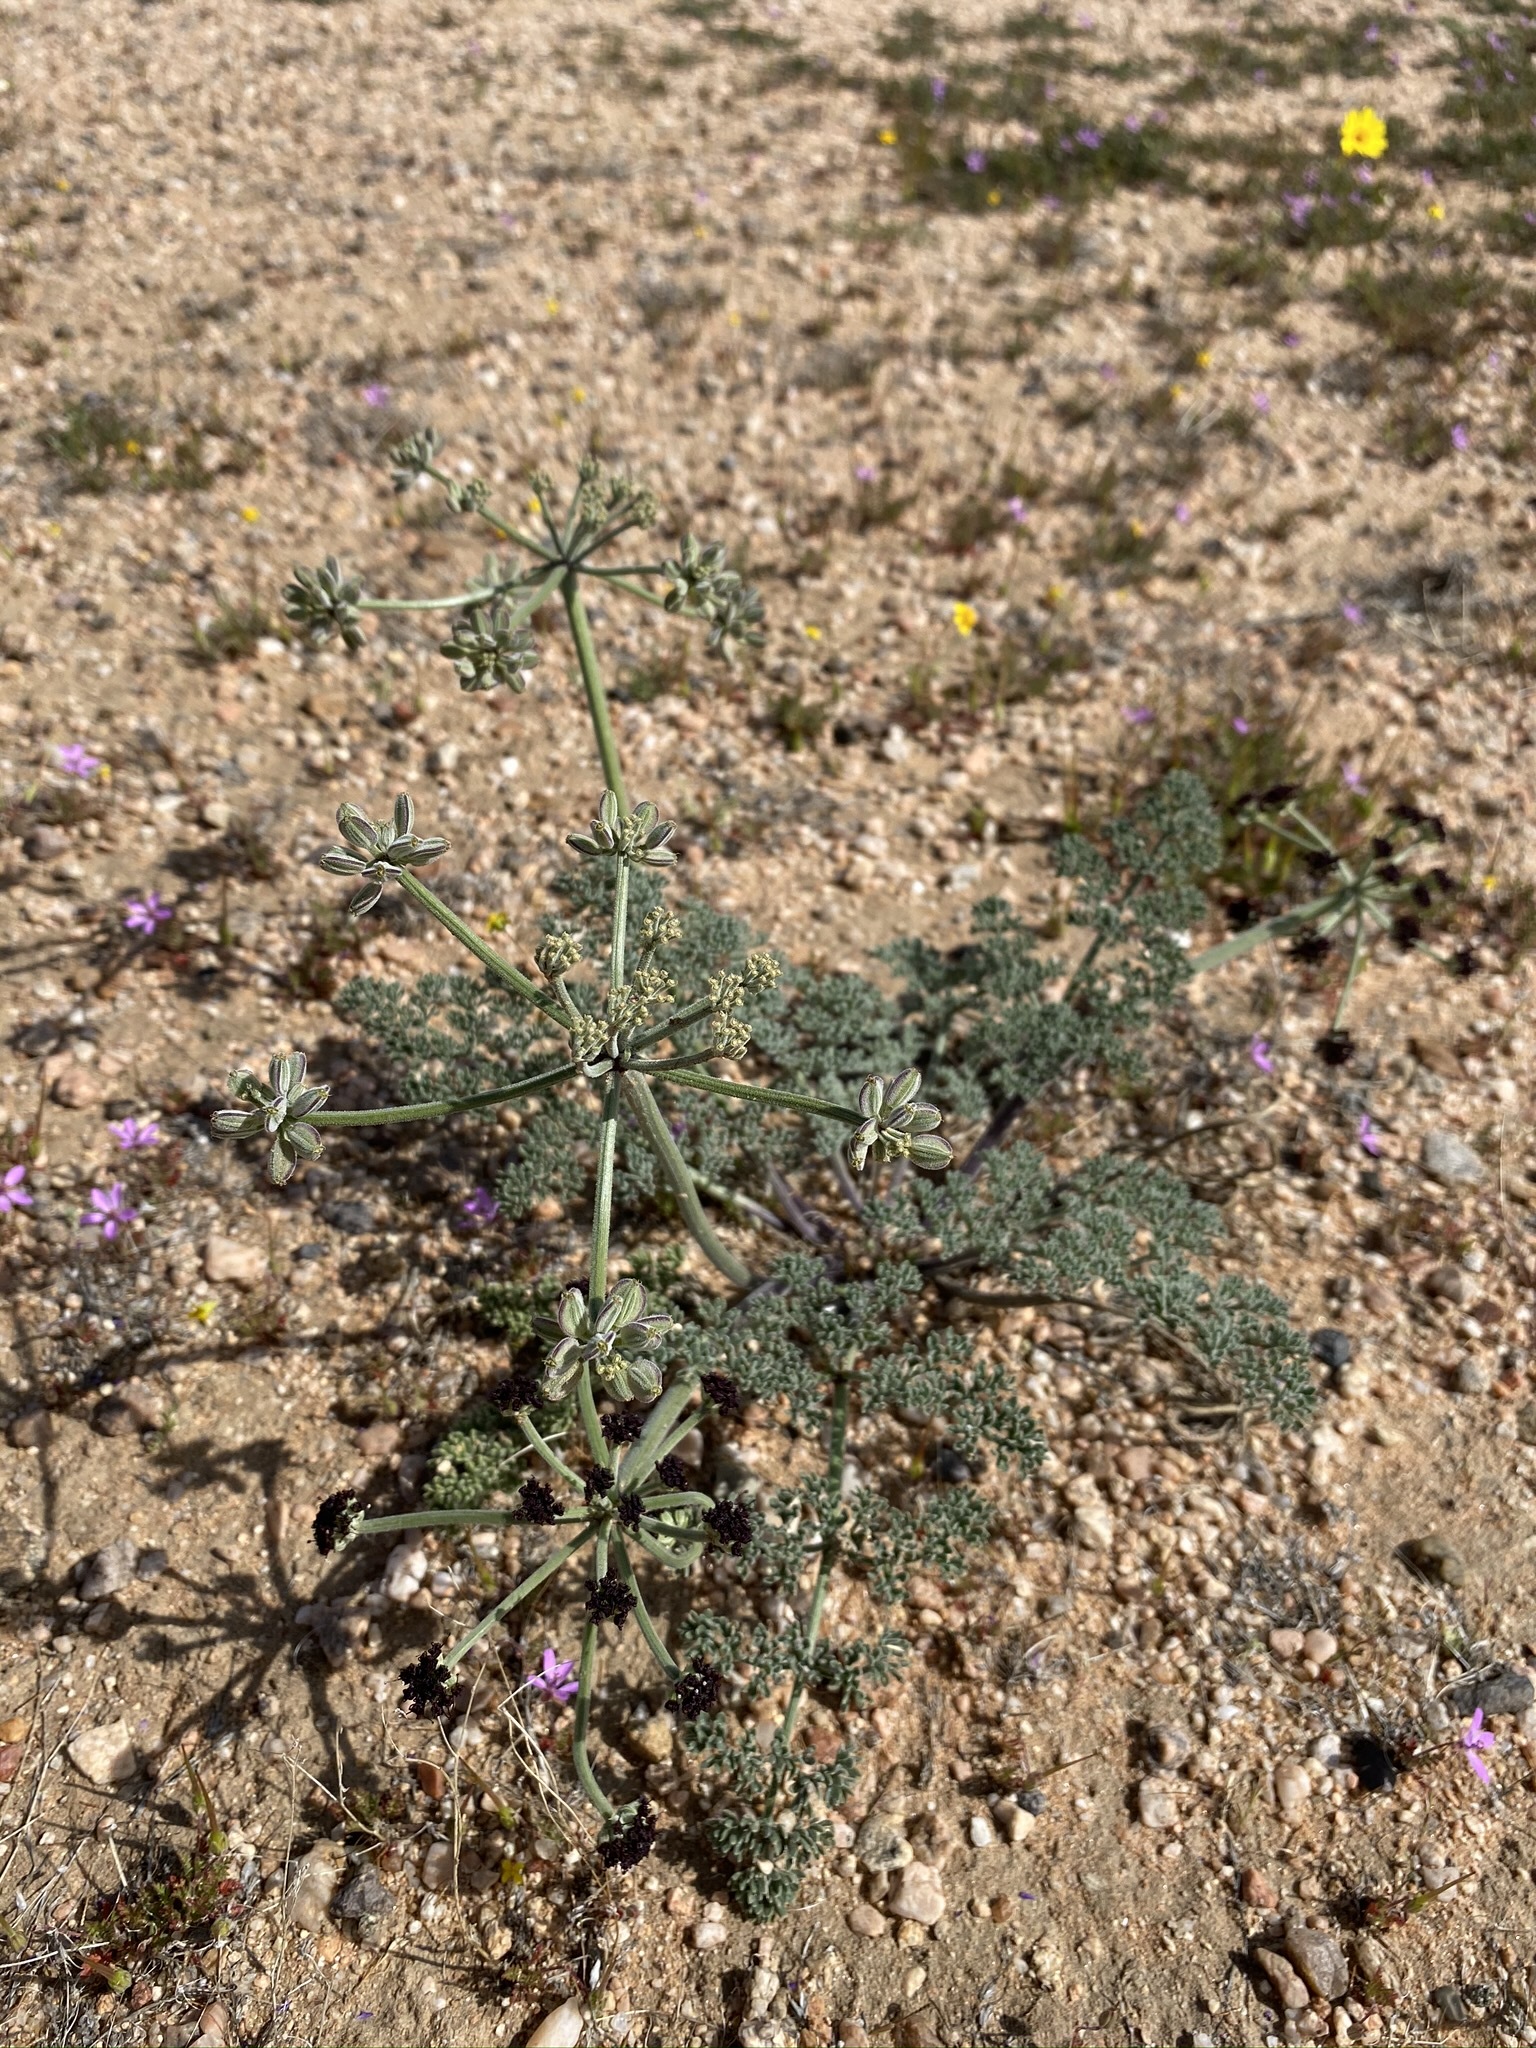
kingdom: Plantae
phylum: Tracheophyta
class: Magnoliopsida
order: Apiales
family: Apiaceae
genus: Lomatium
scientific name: Lomatium mohavense
